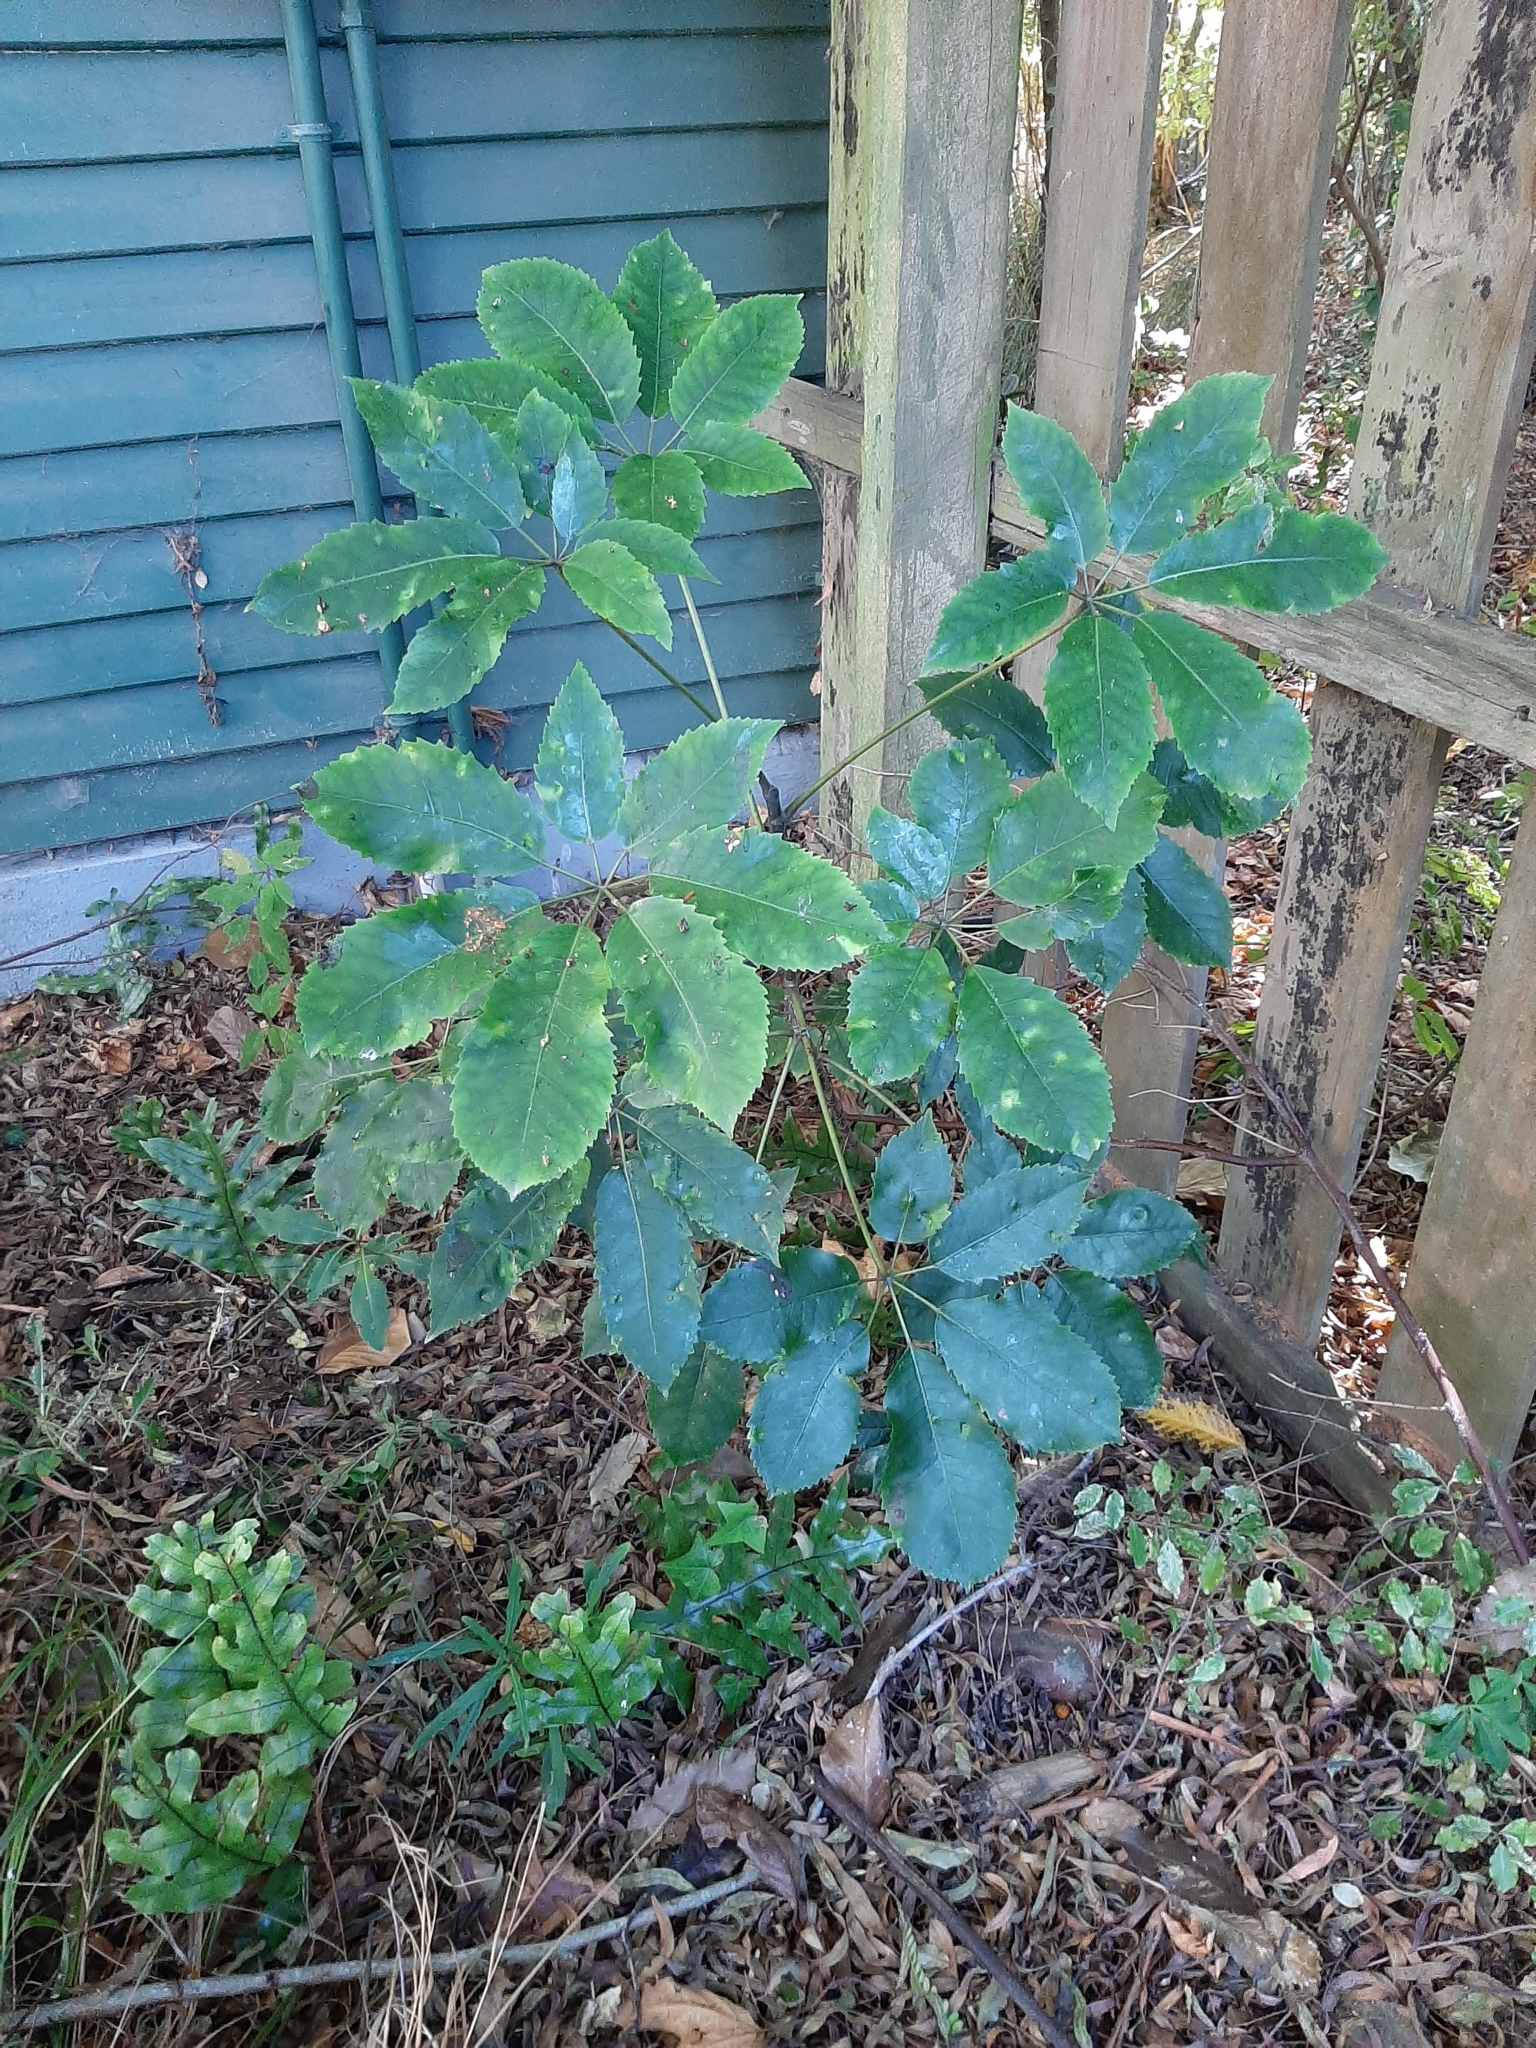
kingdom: Plantae
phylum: Tracheophyta
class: Magnoliopsida
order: Apiales
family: Araliaceae
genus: Neopanax
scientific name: Neopanax arboreus
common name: Five-fingers
